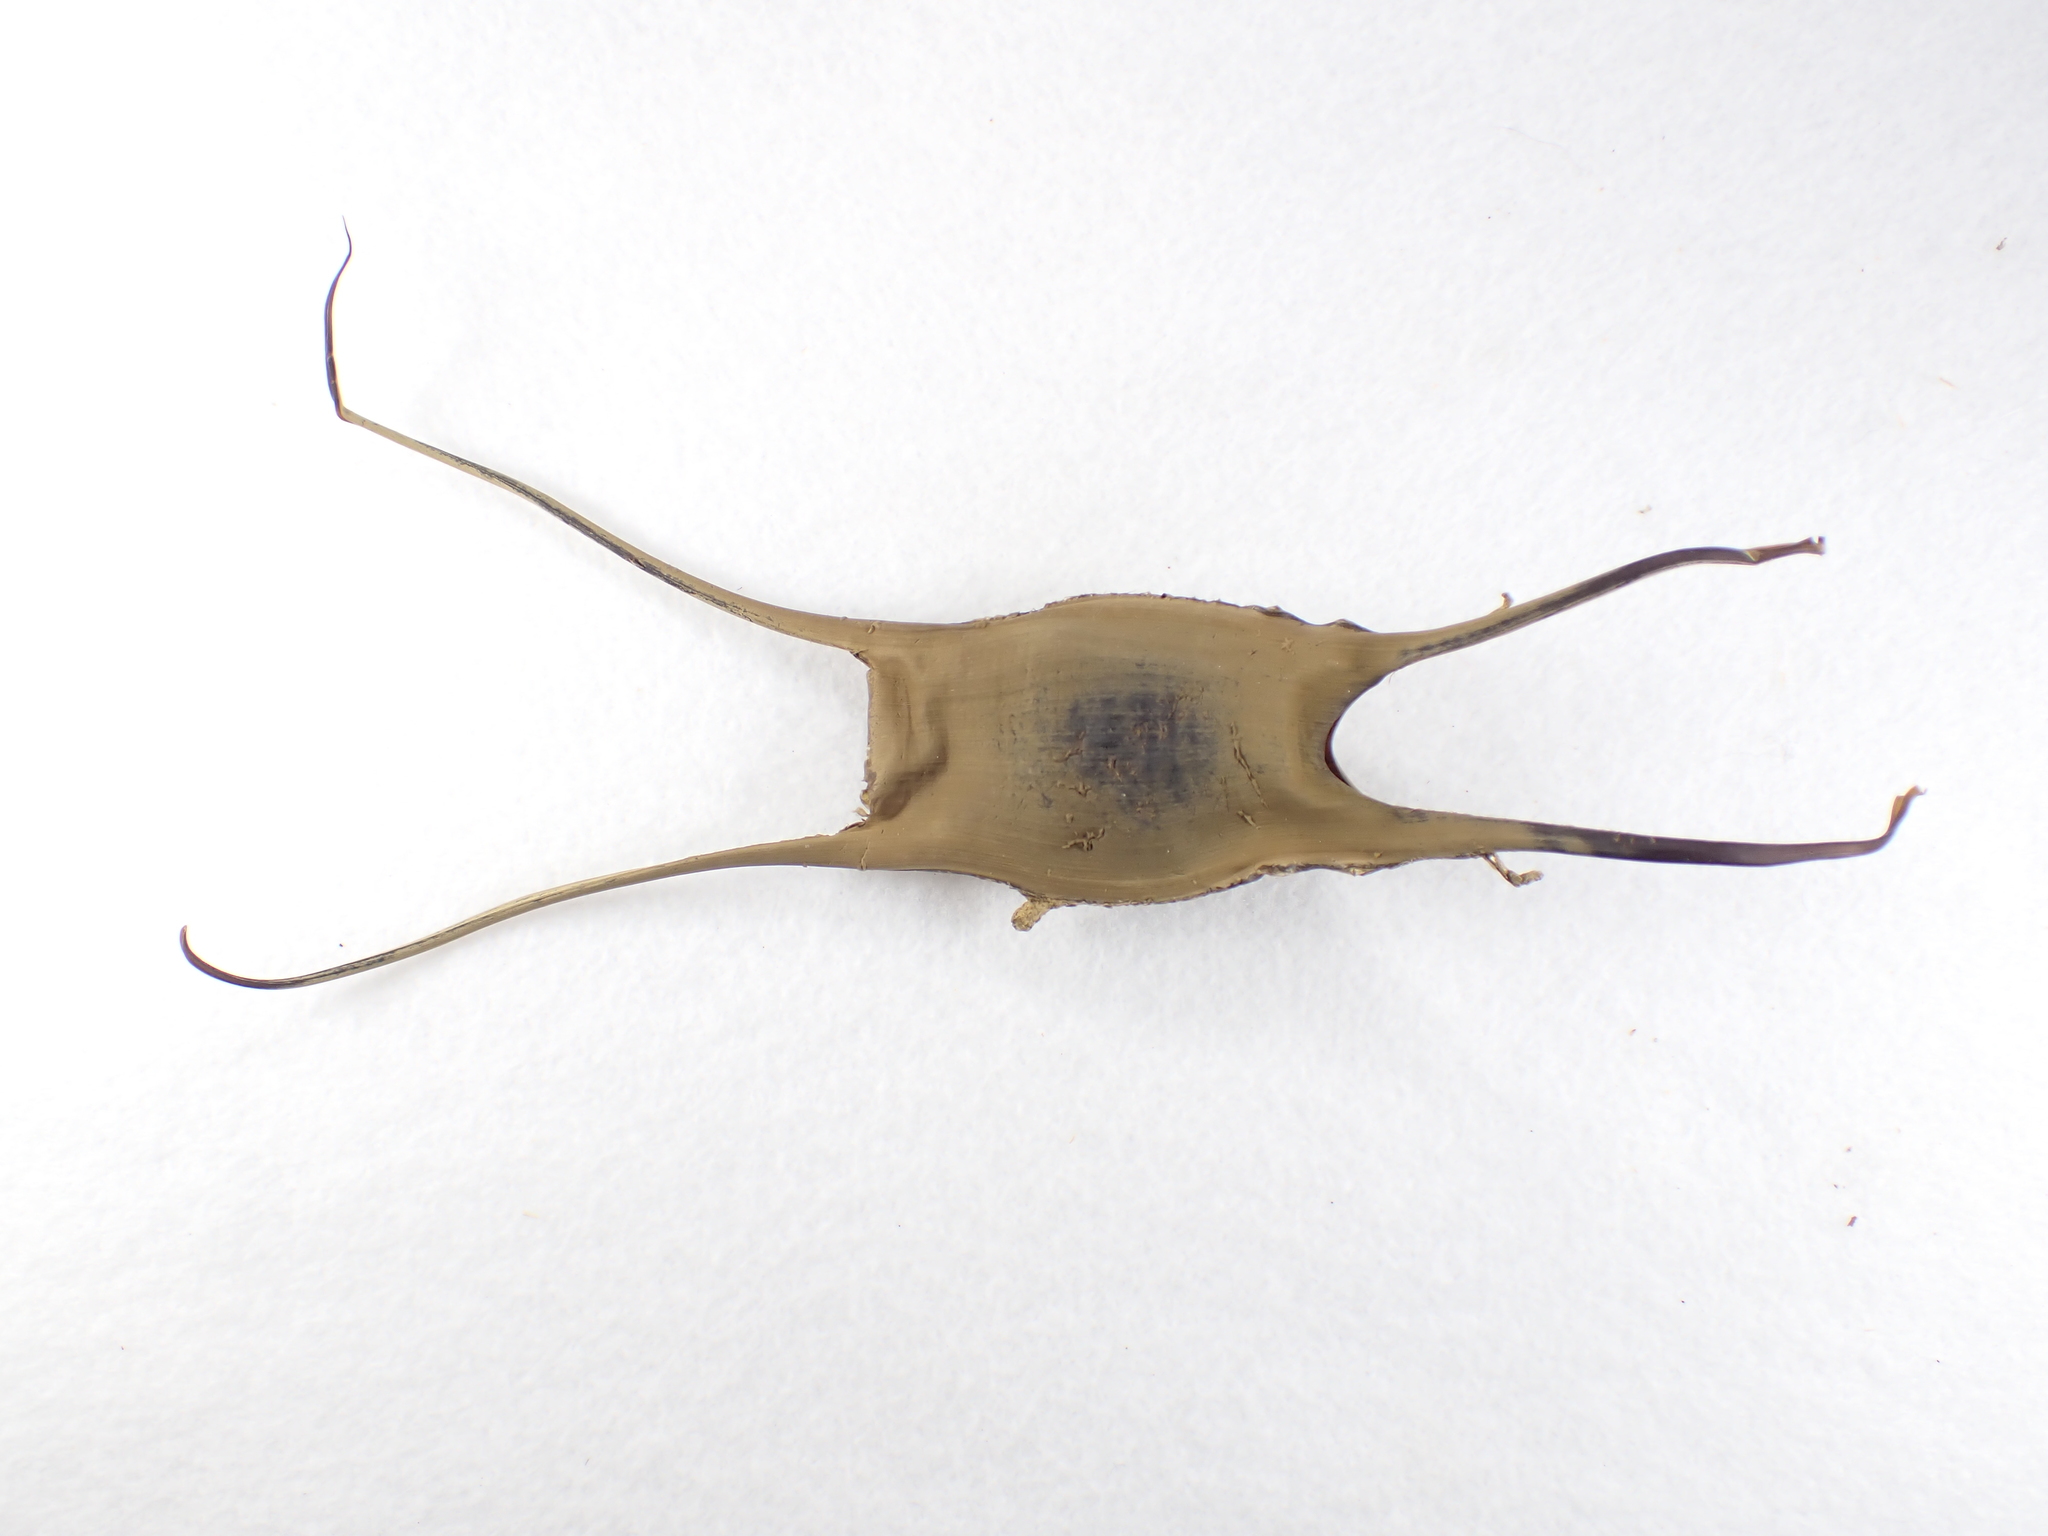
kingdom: Animalia
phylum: Chordata
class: Elasmobranchii
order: Rajiformes
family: Rajidae
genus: Leucoraja
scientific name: Leucoraja erinacea
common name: Little skate
